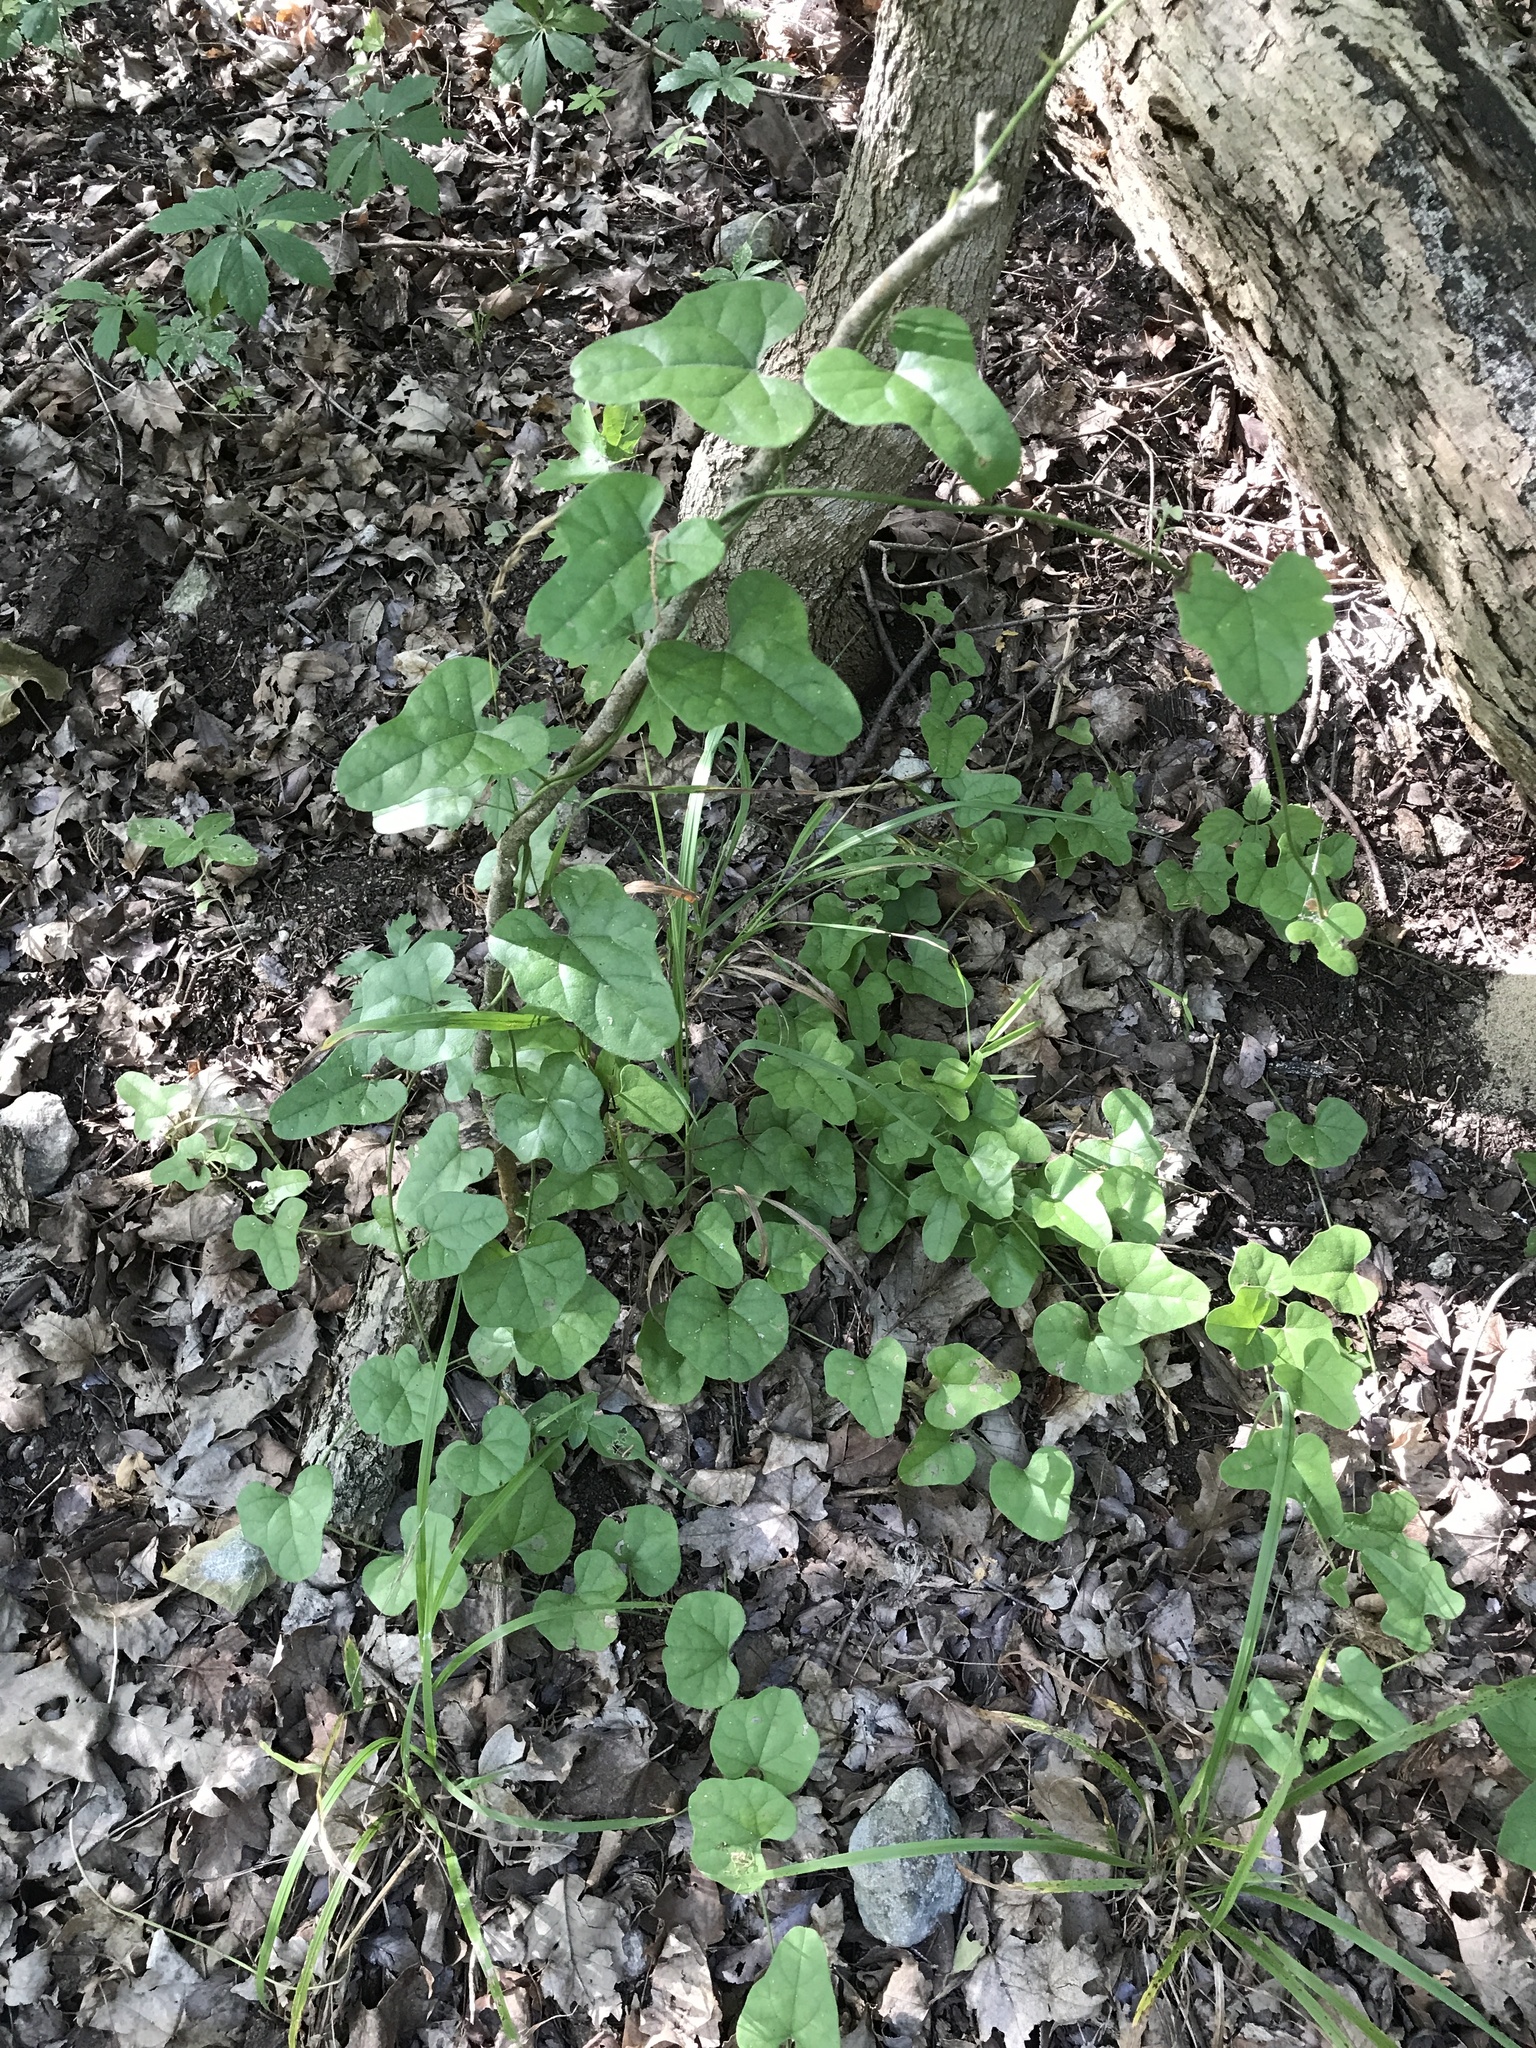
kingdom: Plantae
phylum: Tracheophyta
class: Magnoliopsida
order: Ranunculales
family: Menispermaceae
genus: Cocculus
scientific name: Cocculus carolinus
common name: Carolina moonseed
